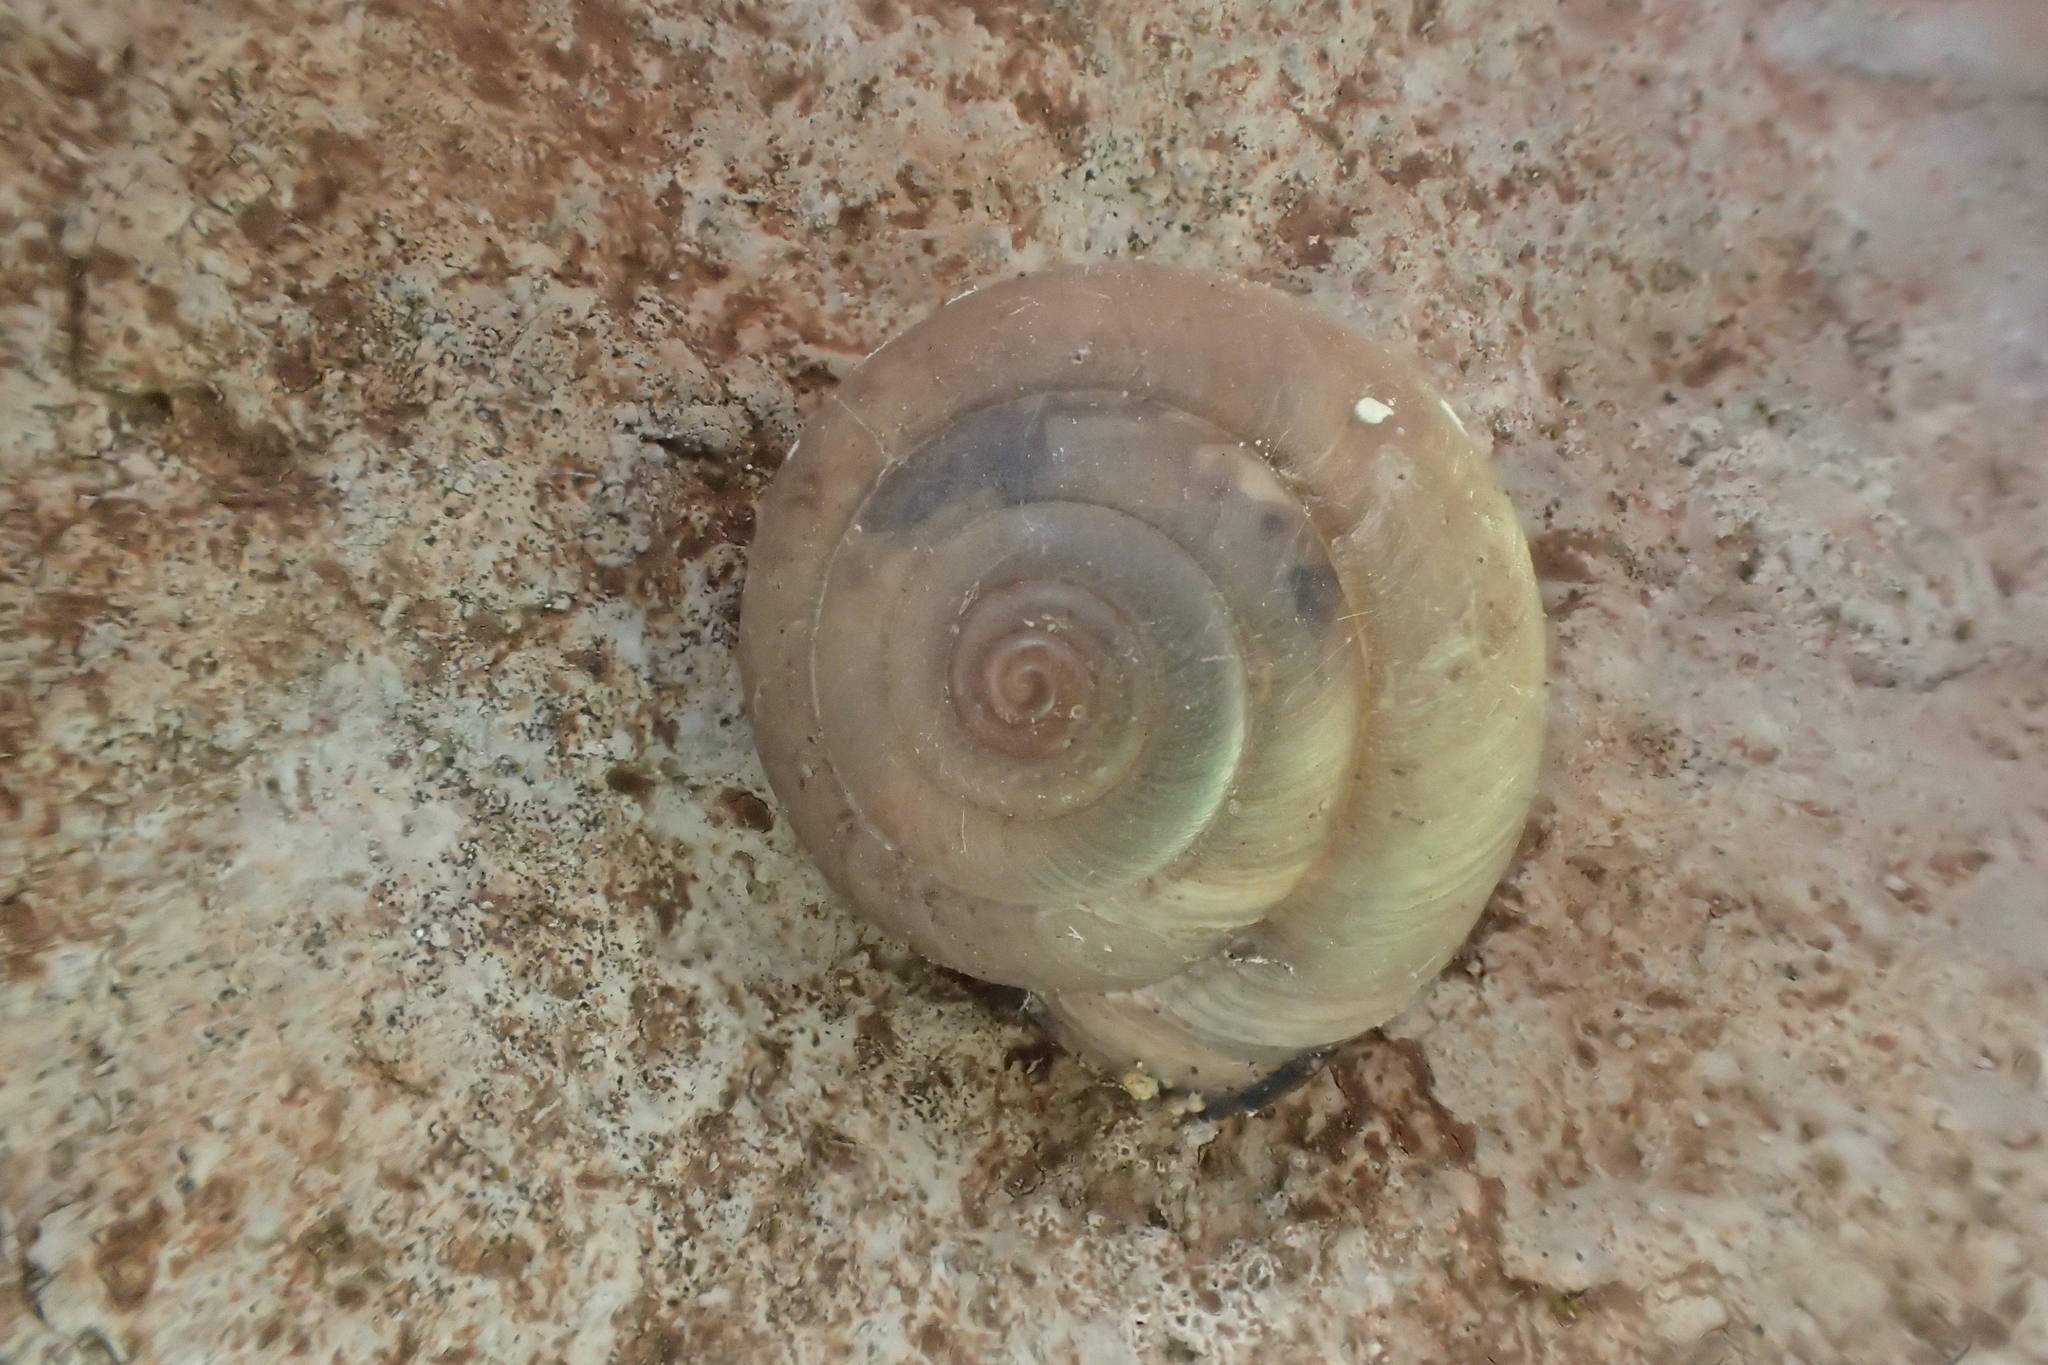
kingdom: Animalia
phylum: Mollusca
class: Gastropoda
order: Stylommatophora
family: Hygromiidae
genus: Monacha
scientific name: Monacha syriaca
